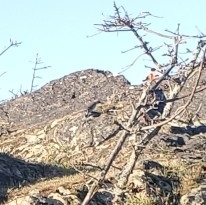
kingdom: Animalia
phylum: Chordata
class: Aves
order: Piciformes
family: Picidae
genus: Colaptes
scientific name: Colaptes auratus
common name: Northern flicker
